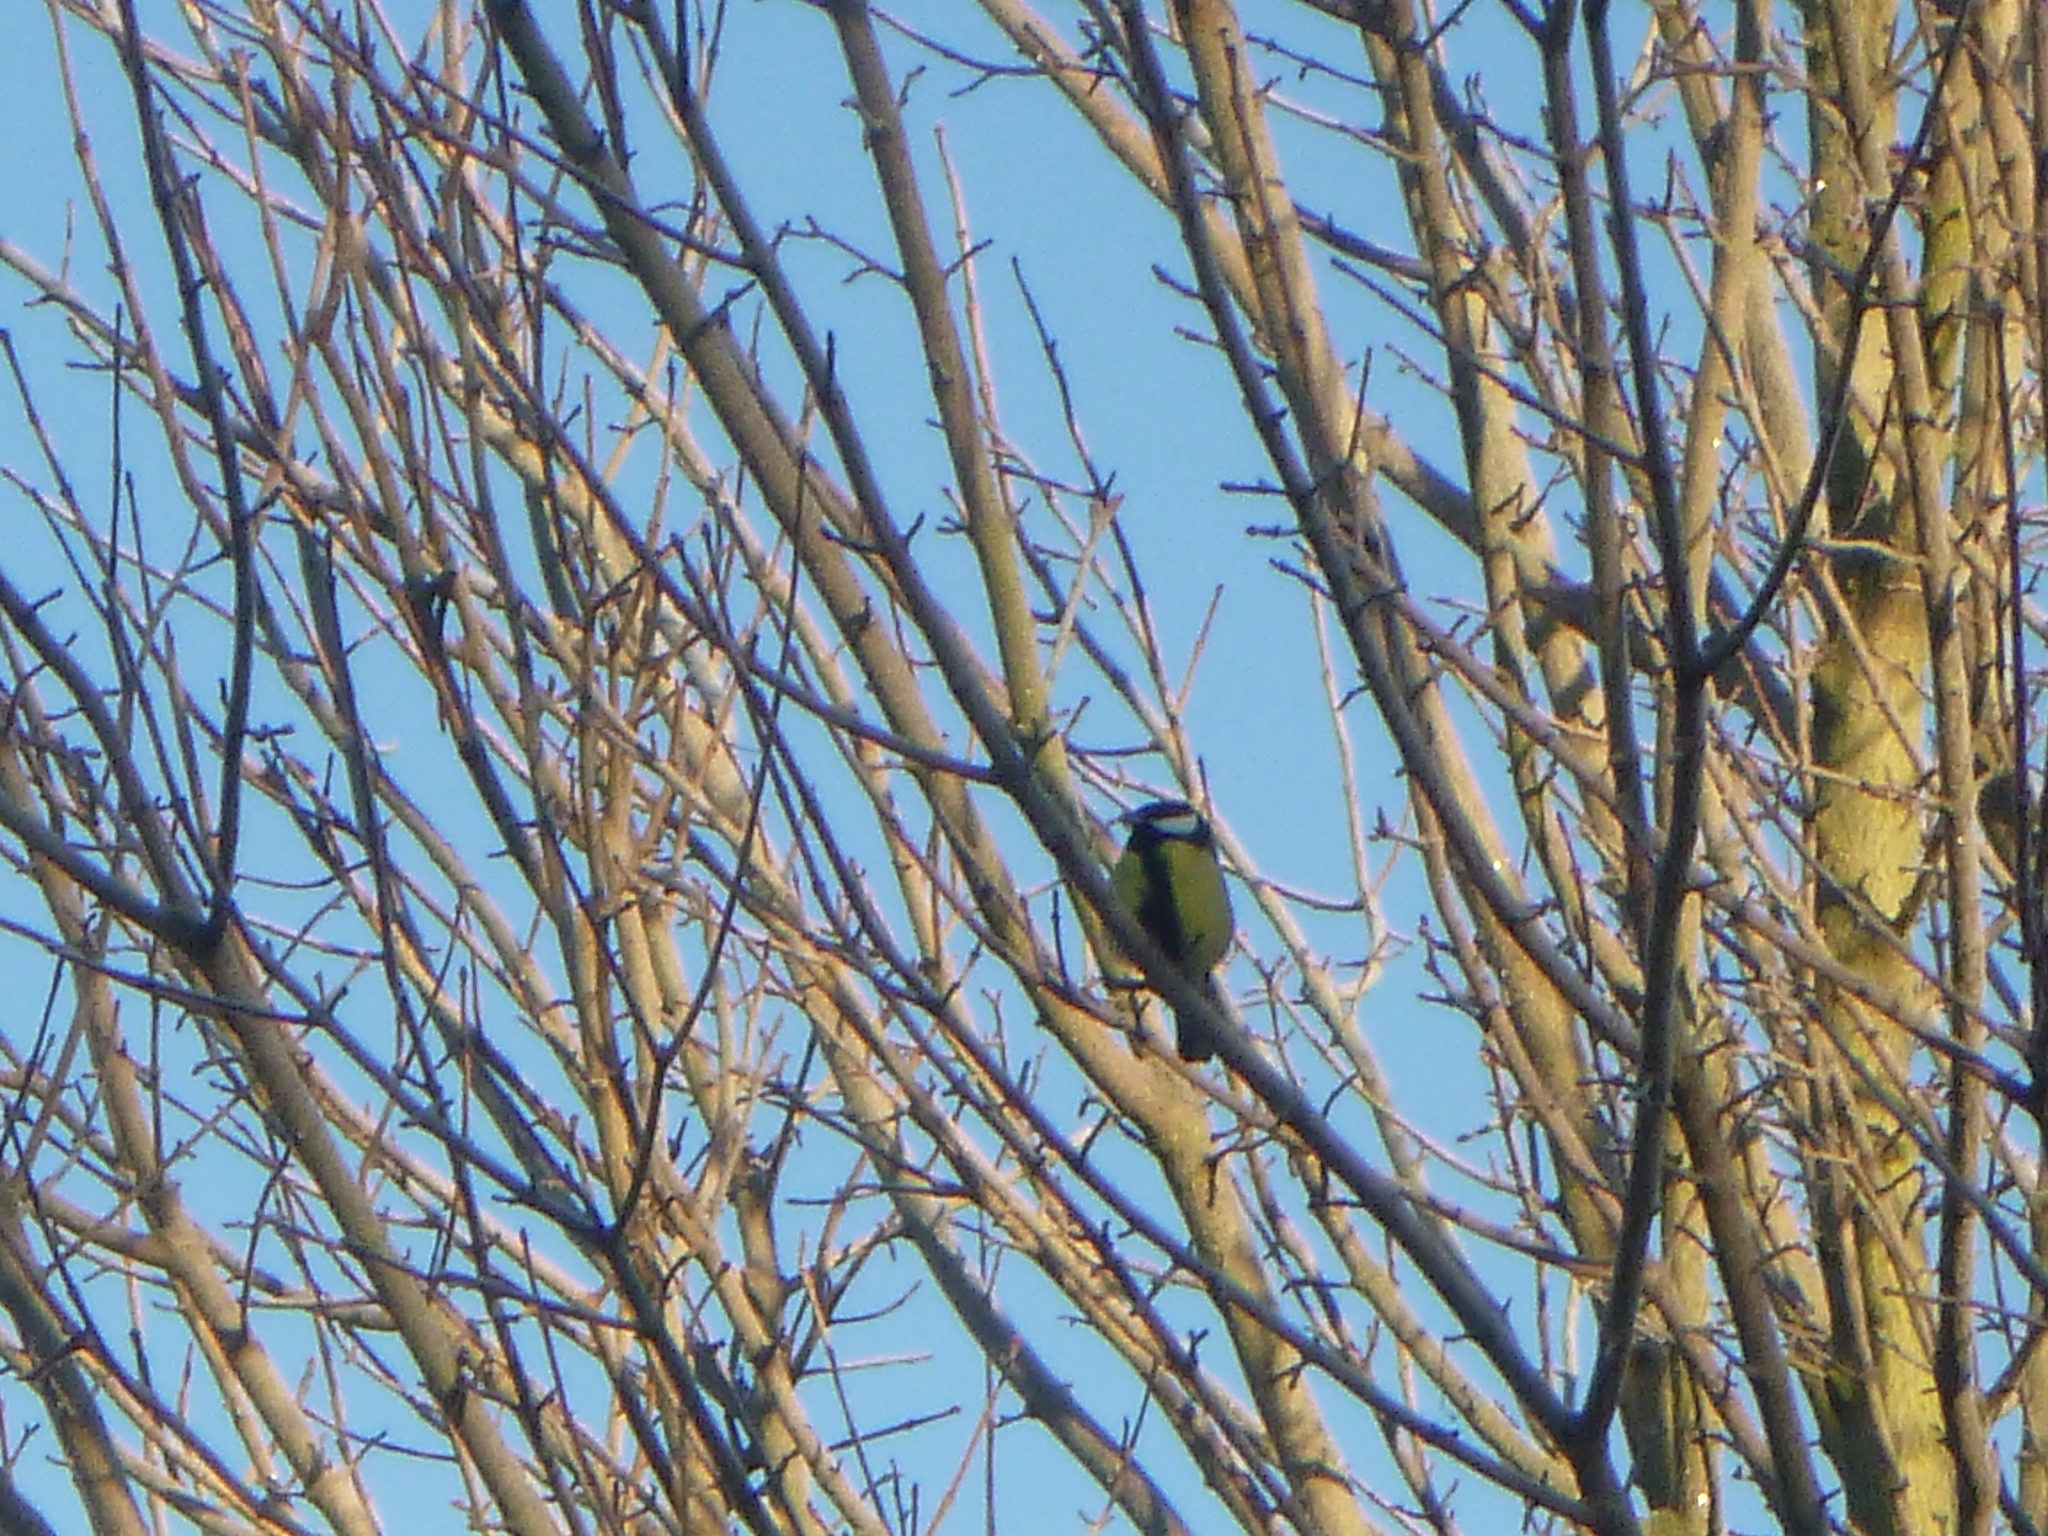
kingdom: Animalia
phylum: Chordata
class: Aves
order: Passeriformes
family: Paridae
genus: Parus
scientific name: Parus major
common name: Great tit
